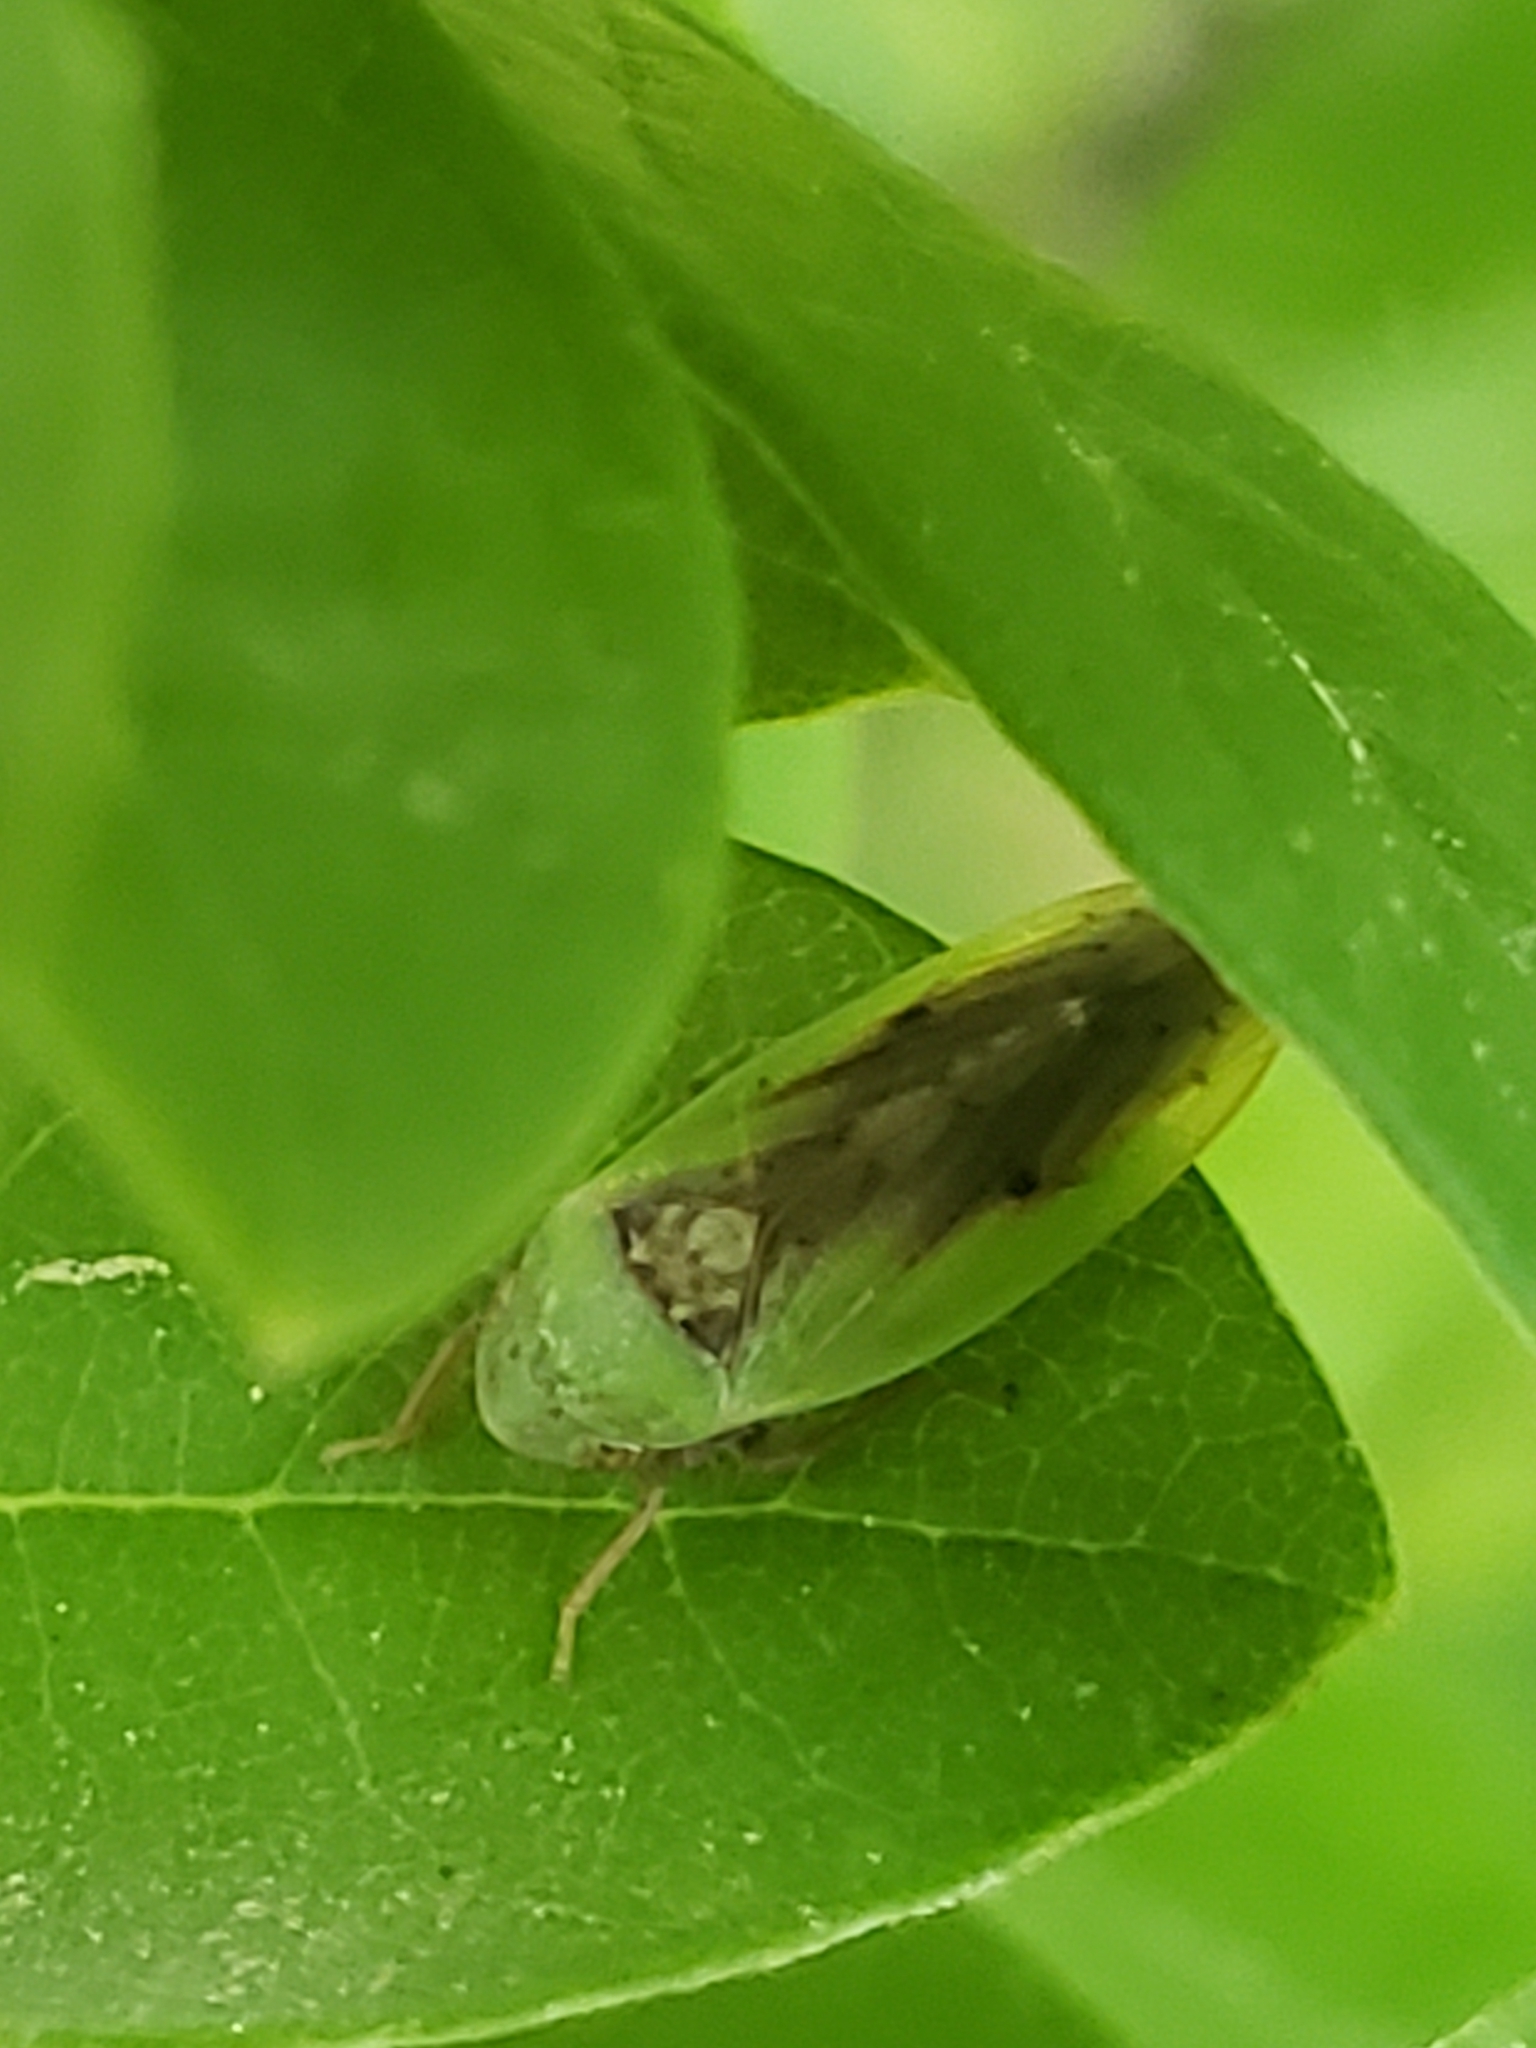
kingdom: Animalia
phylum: Arthropoda
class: Insecta
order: Hemiptera
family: Cicadellidae
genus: Ponana
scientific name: Ponana pectoralis
